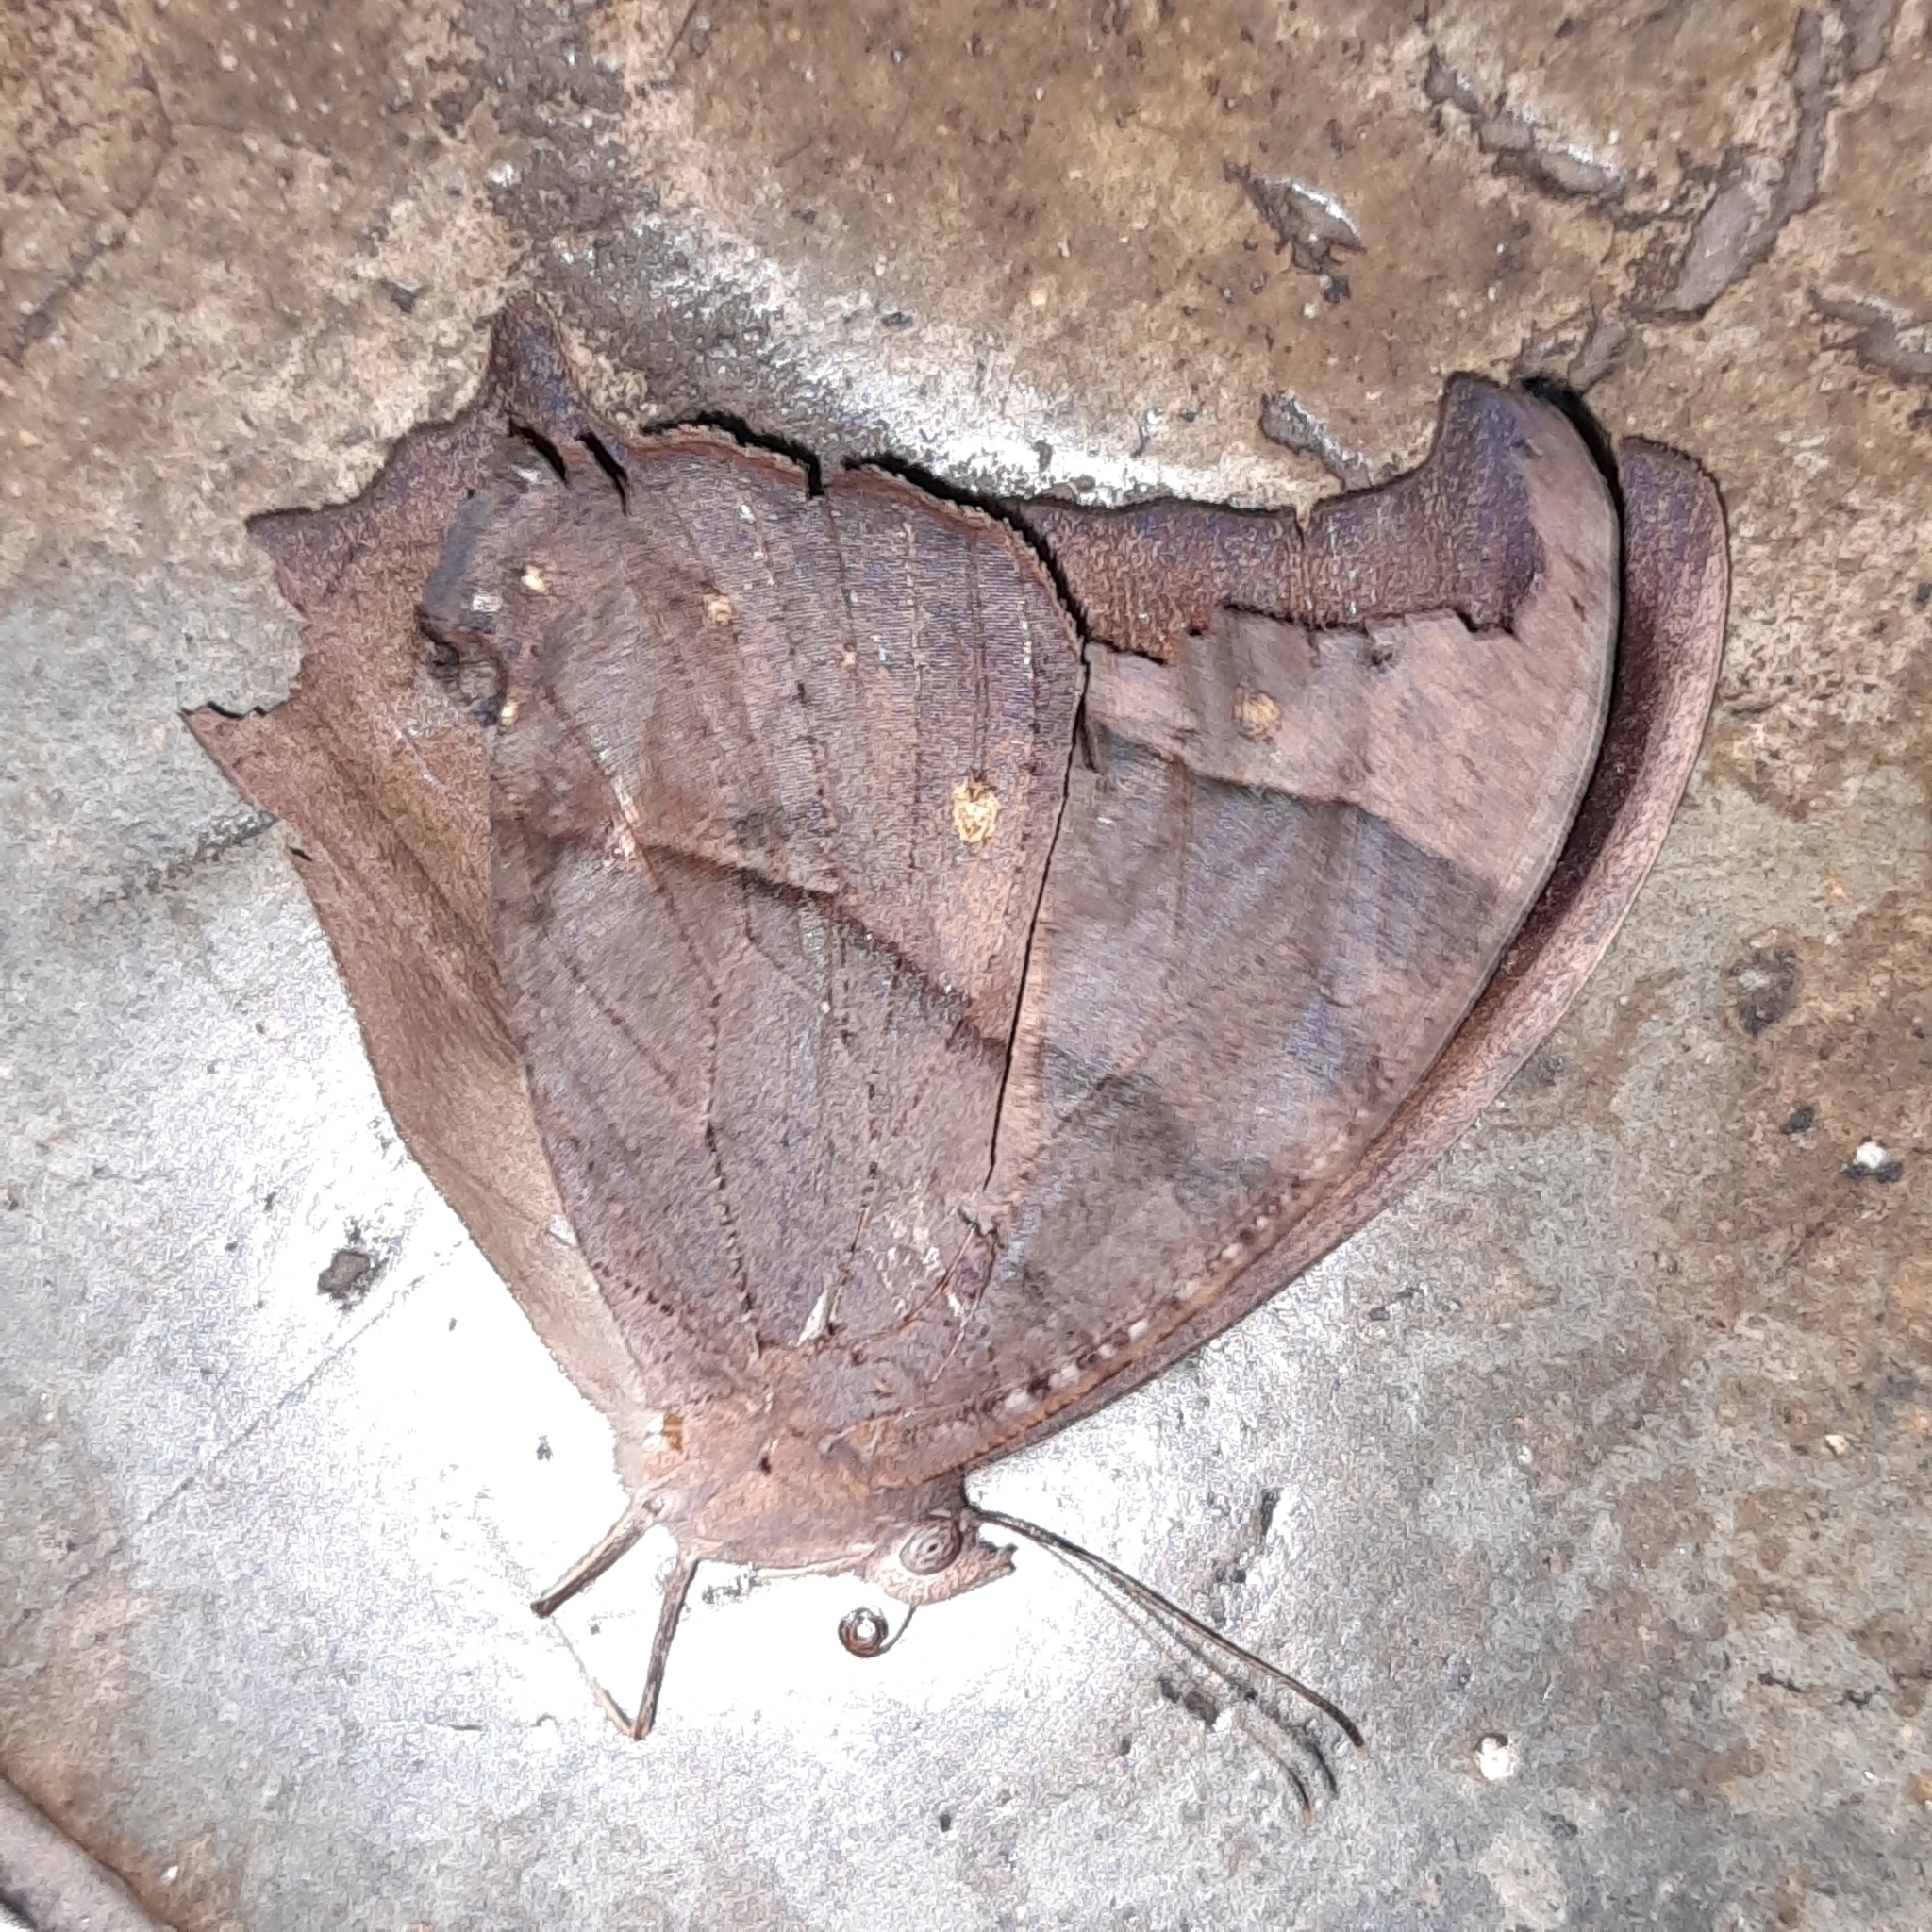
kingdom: Animalia
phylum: Arthropoda
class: Insecta
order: Lepidoptera
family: Nymphalidae
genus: Melanitis
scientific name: Melanitis leda
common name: Twilight brown
